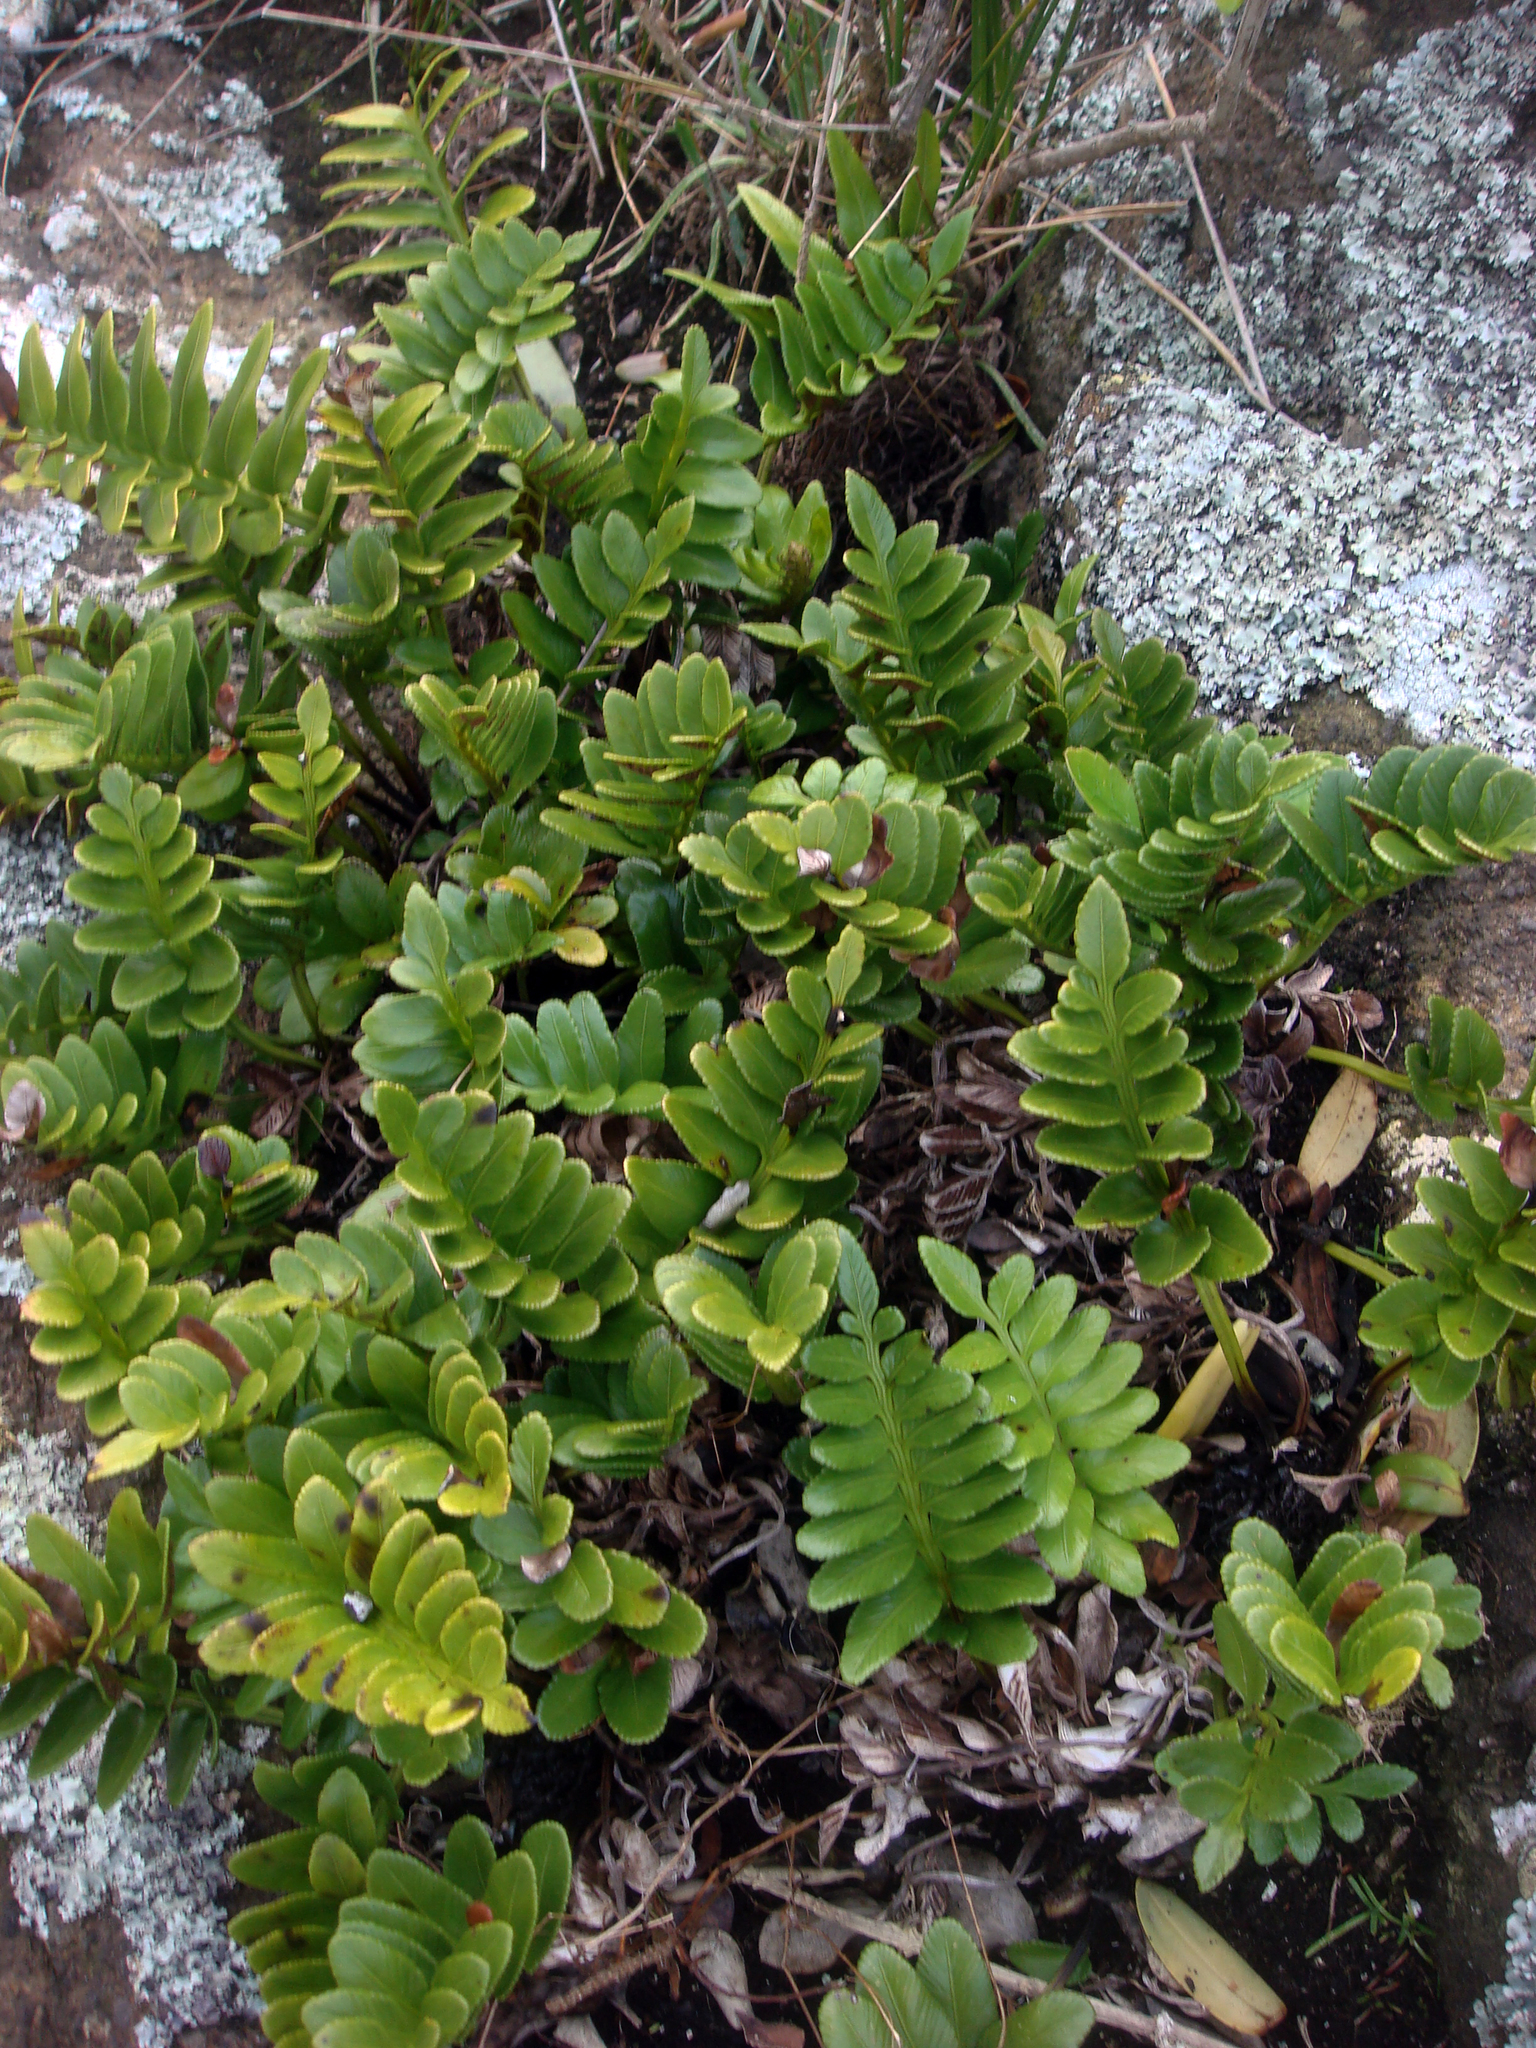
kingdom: Plantae
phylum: Tracheophyta
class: Polypodiopsida
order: Polypodiales
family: Aspleniaceae
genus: Asplenium
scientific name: Asplenium obtusatum
